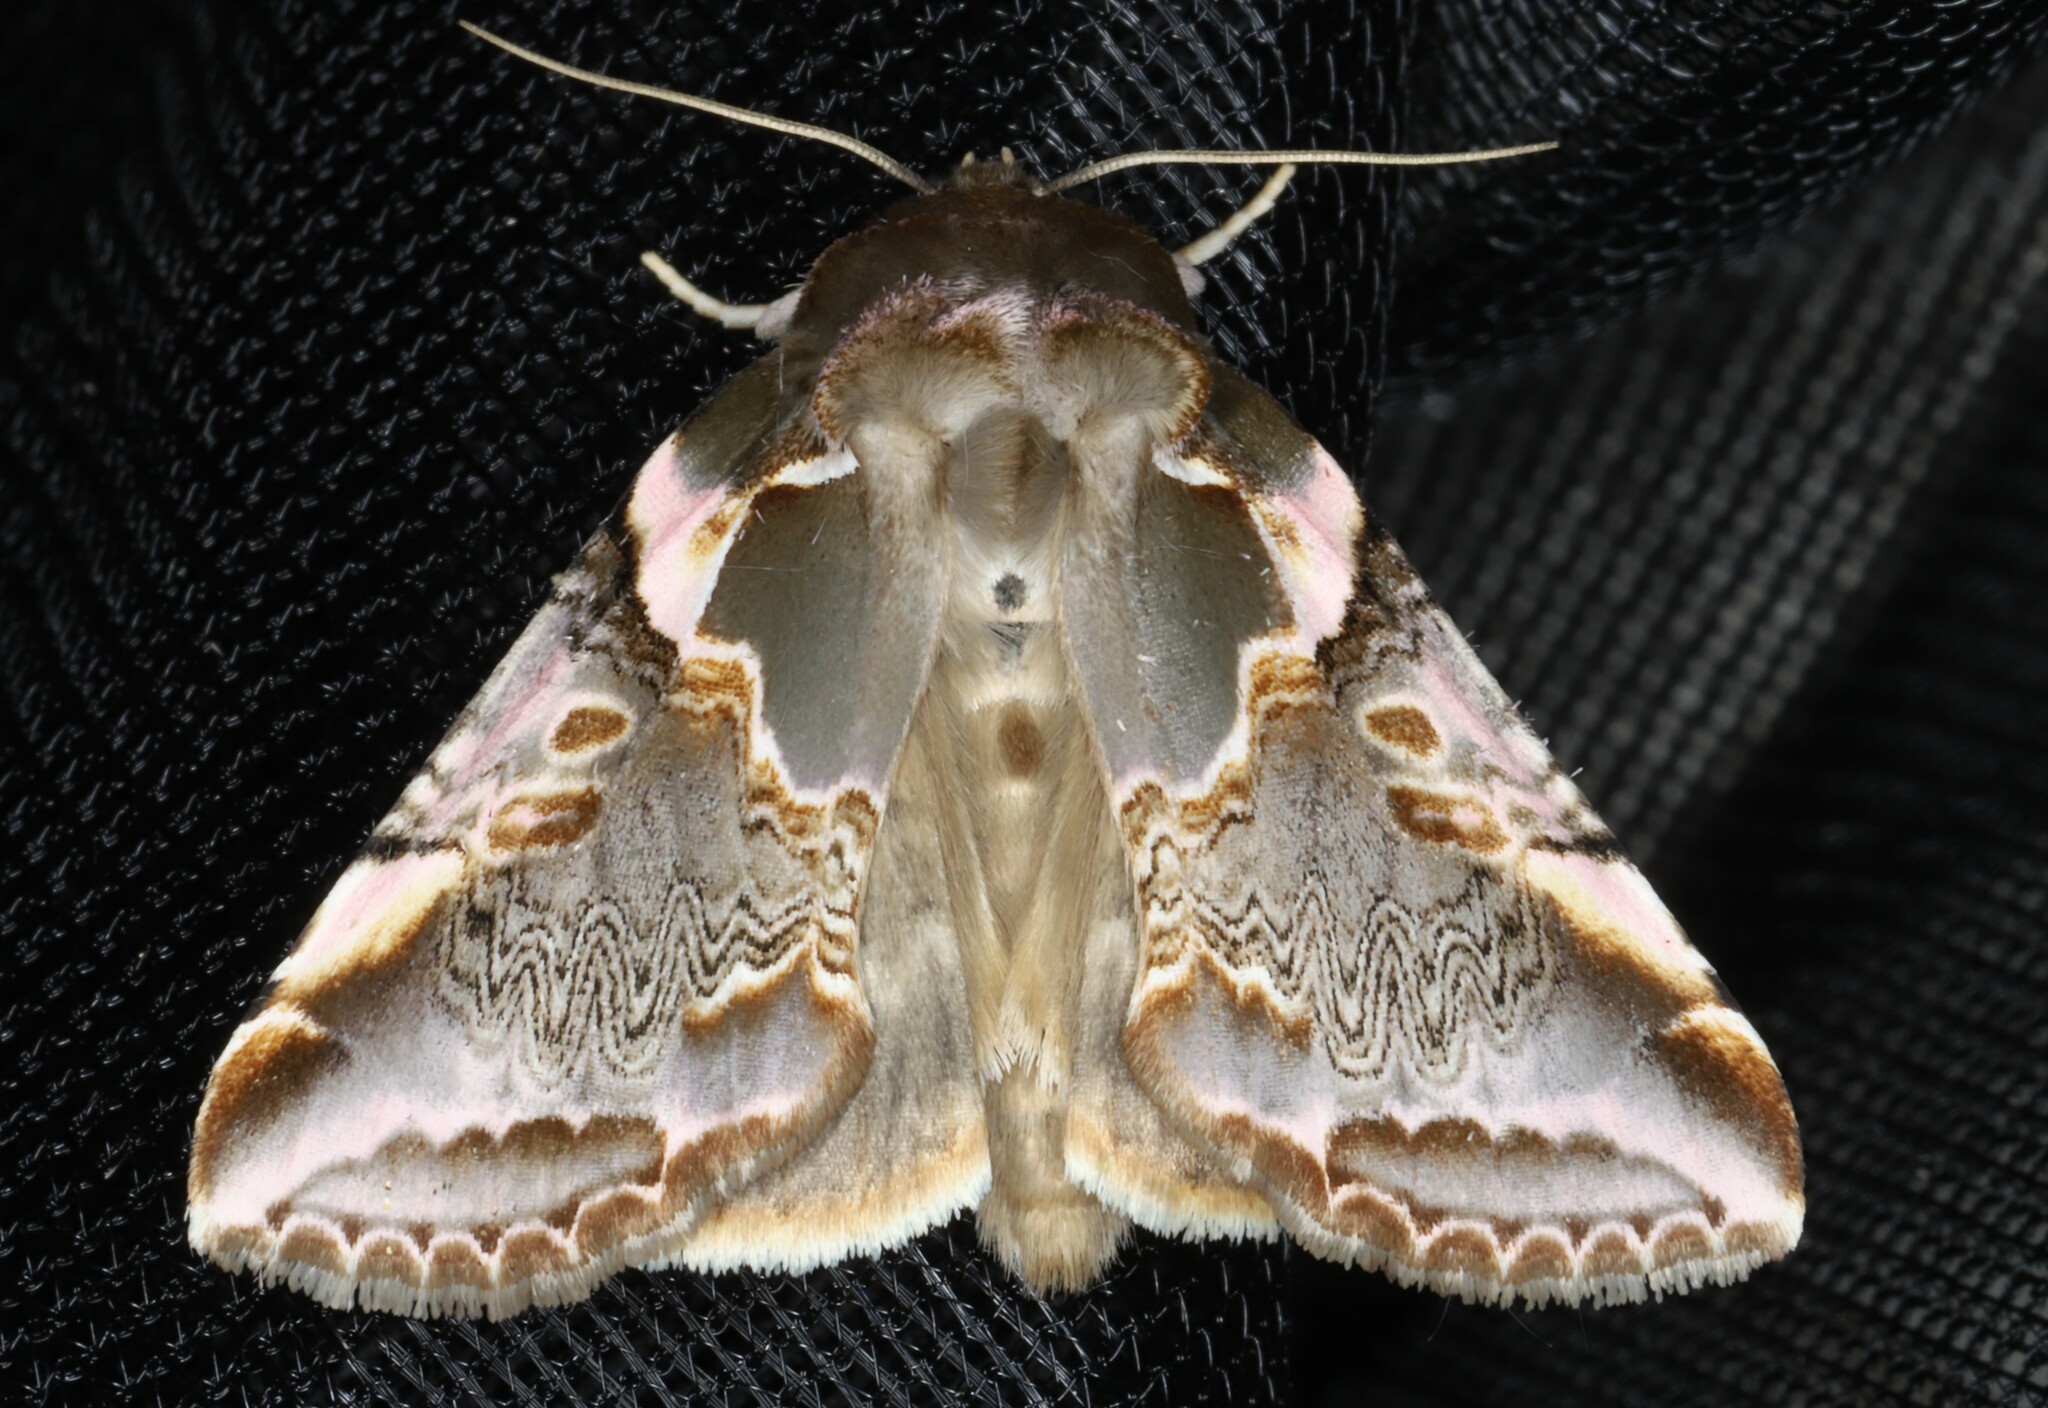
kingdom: Animalia
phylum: Arthropoda
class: Insecta
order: Lepidoptera
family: Drepanidae
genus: Habrosyne
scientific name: Habrosyne gloriosa
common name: Glorious habrosyne moth
